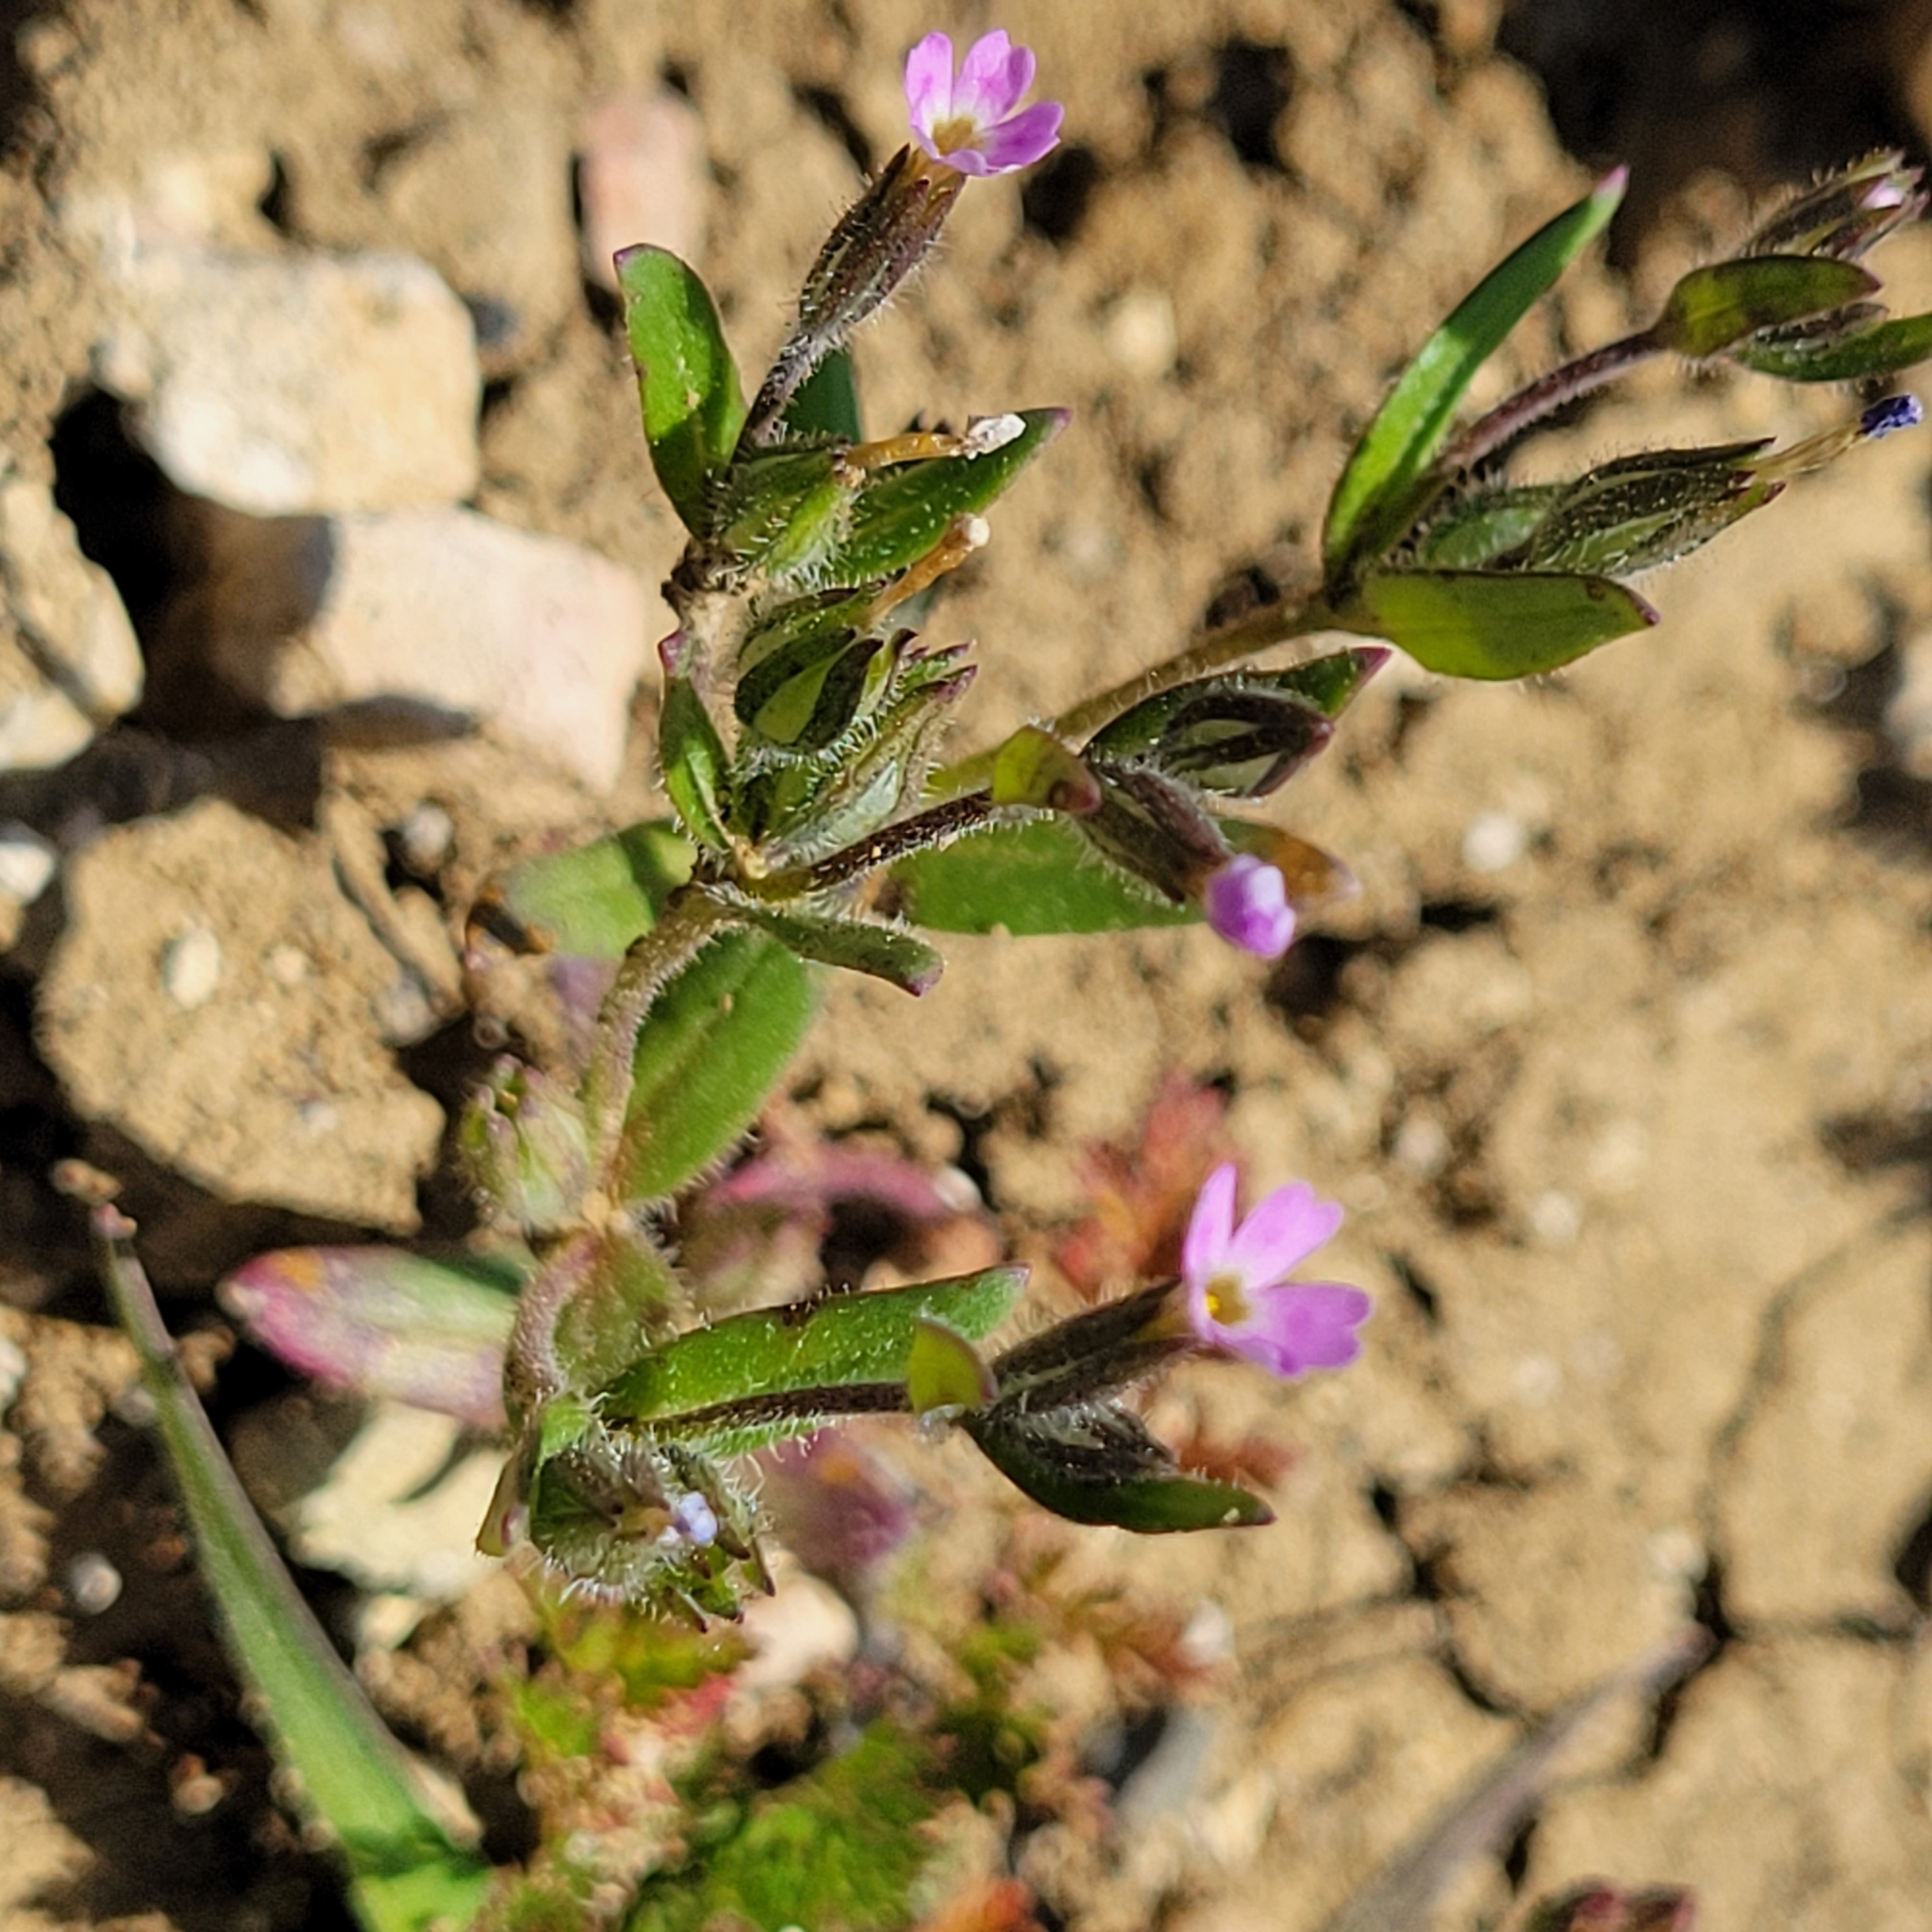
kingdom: Plantae
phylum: Tracheophyta
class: Magnoliopsida
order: Ericales
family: Polemoniaceae
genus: Phlox
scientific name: Phlox gracilis
